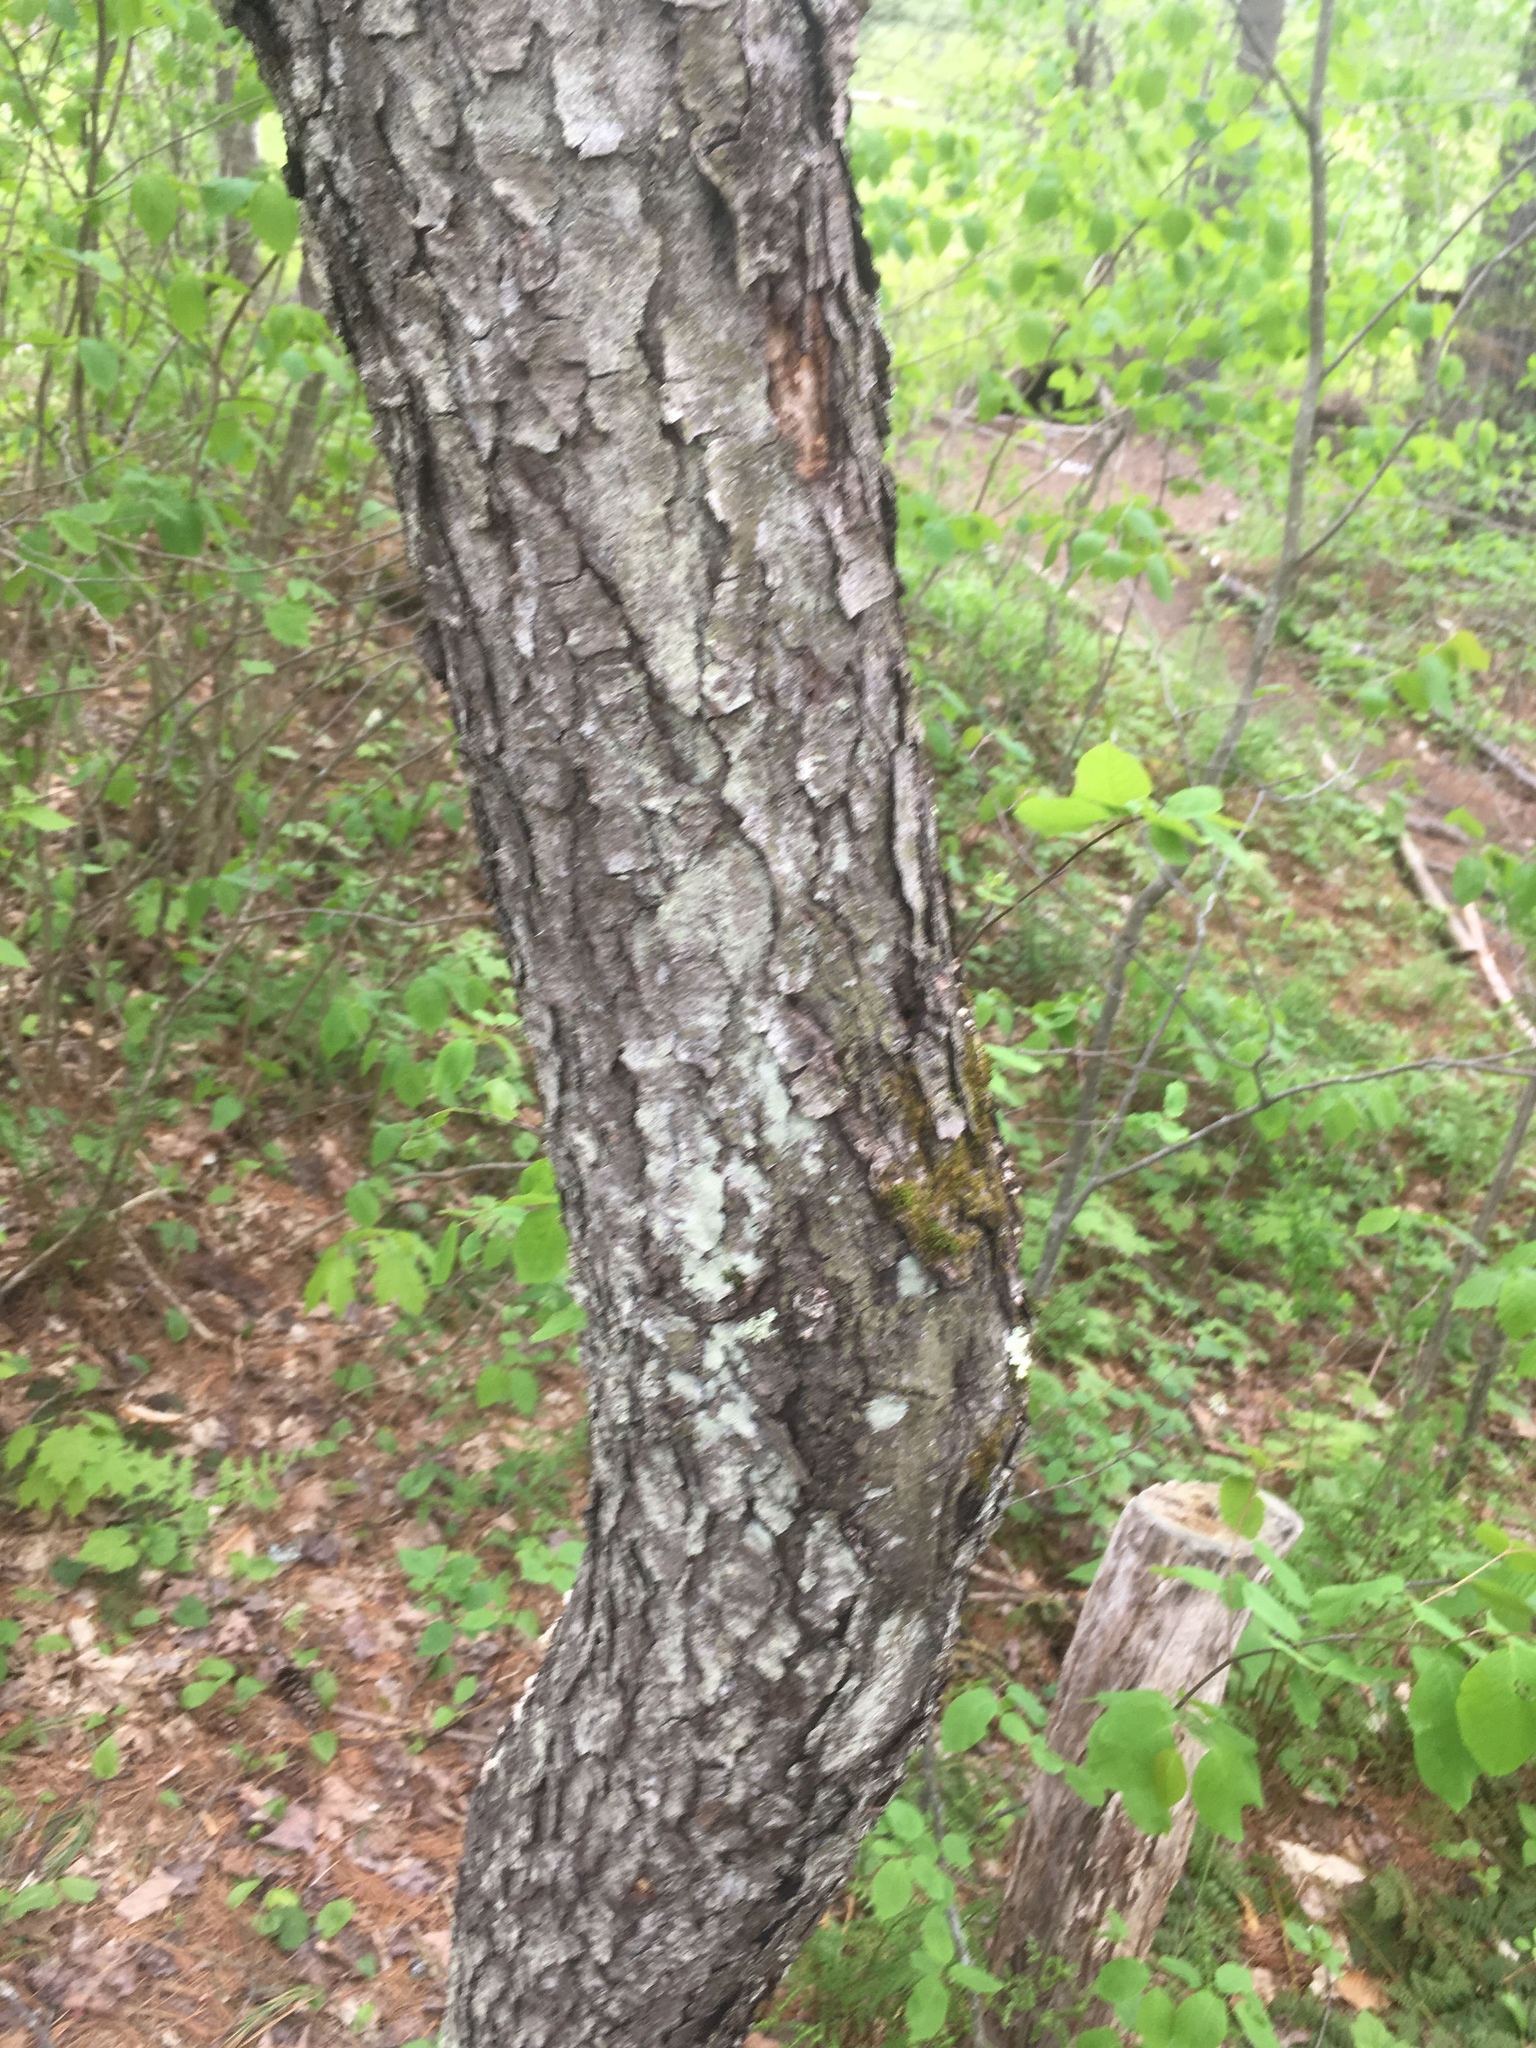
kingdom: Plantae
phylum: Tracheophyta
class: Magnoliopsida
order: Rosales
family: Rosaceae
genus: Prunus
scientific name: Prunus serotina
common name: Black cherry
